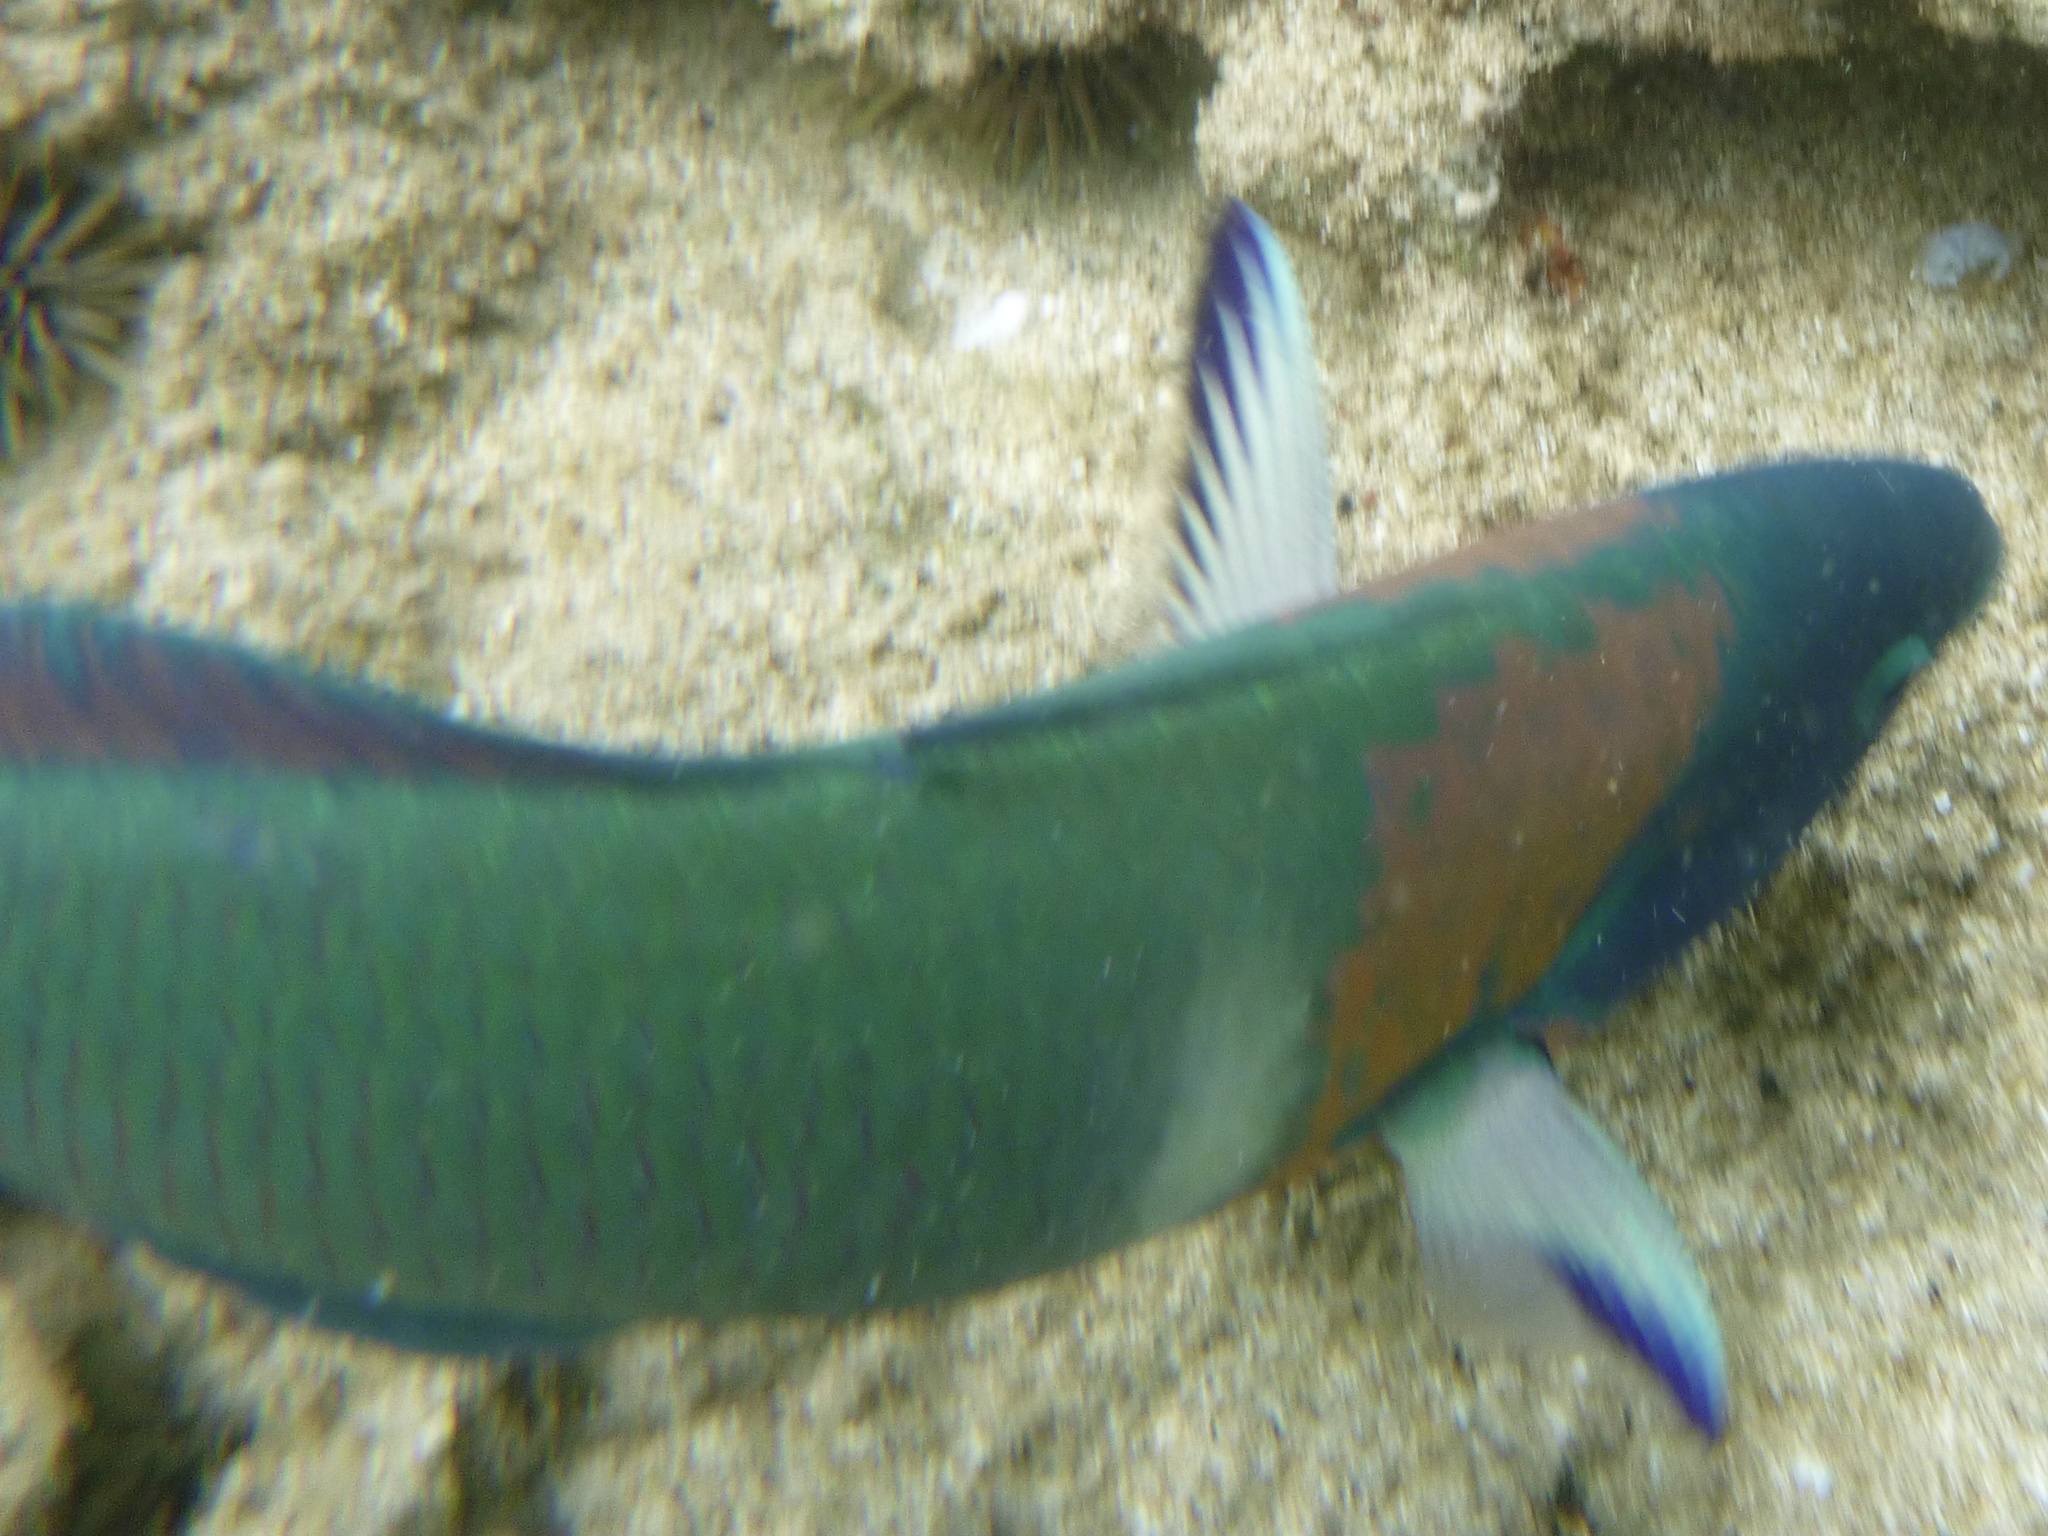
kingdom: Animalia
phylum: Chordata
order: Perciformes
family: Labridae
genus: Thalassoma
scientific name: Thalassoma duperrey
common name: Saddle wrasse
